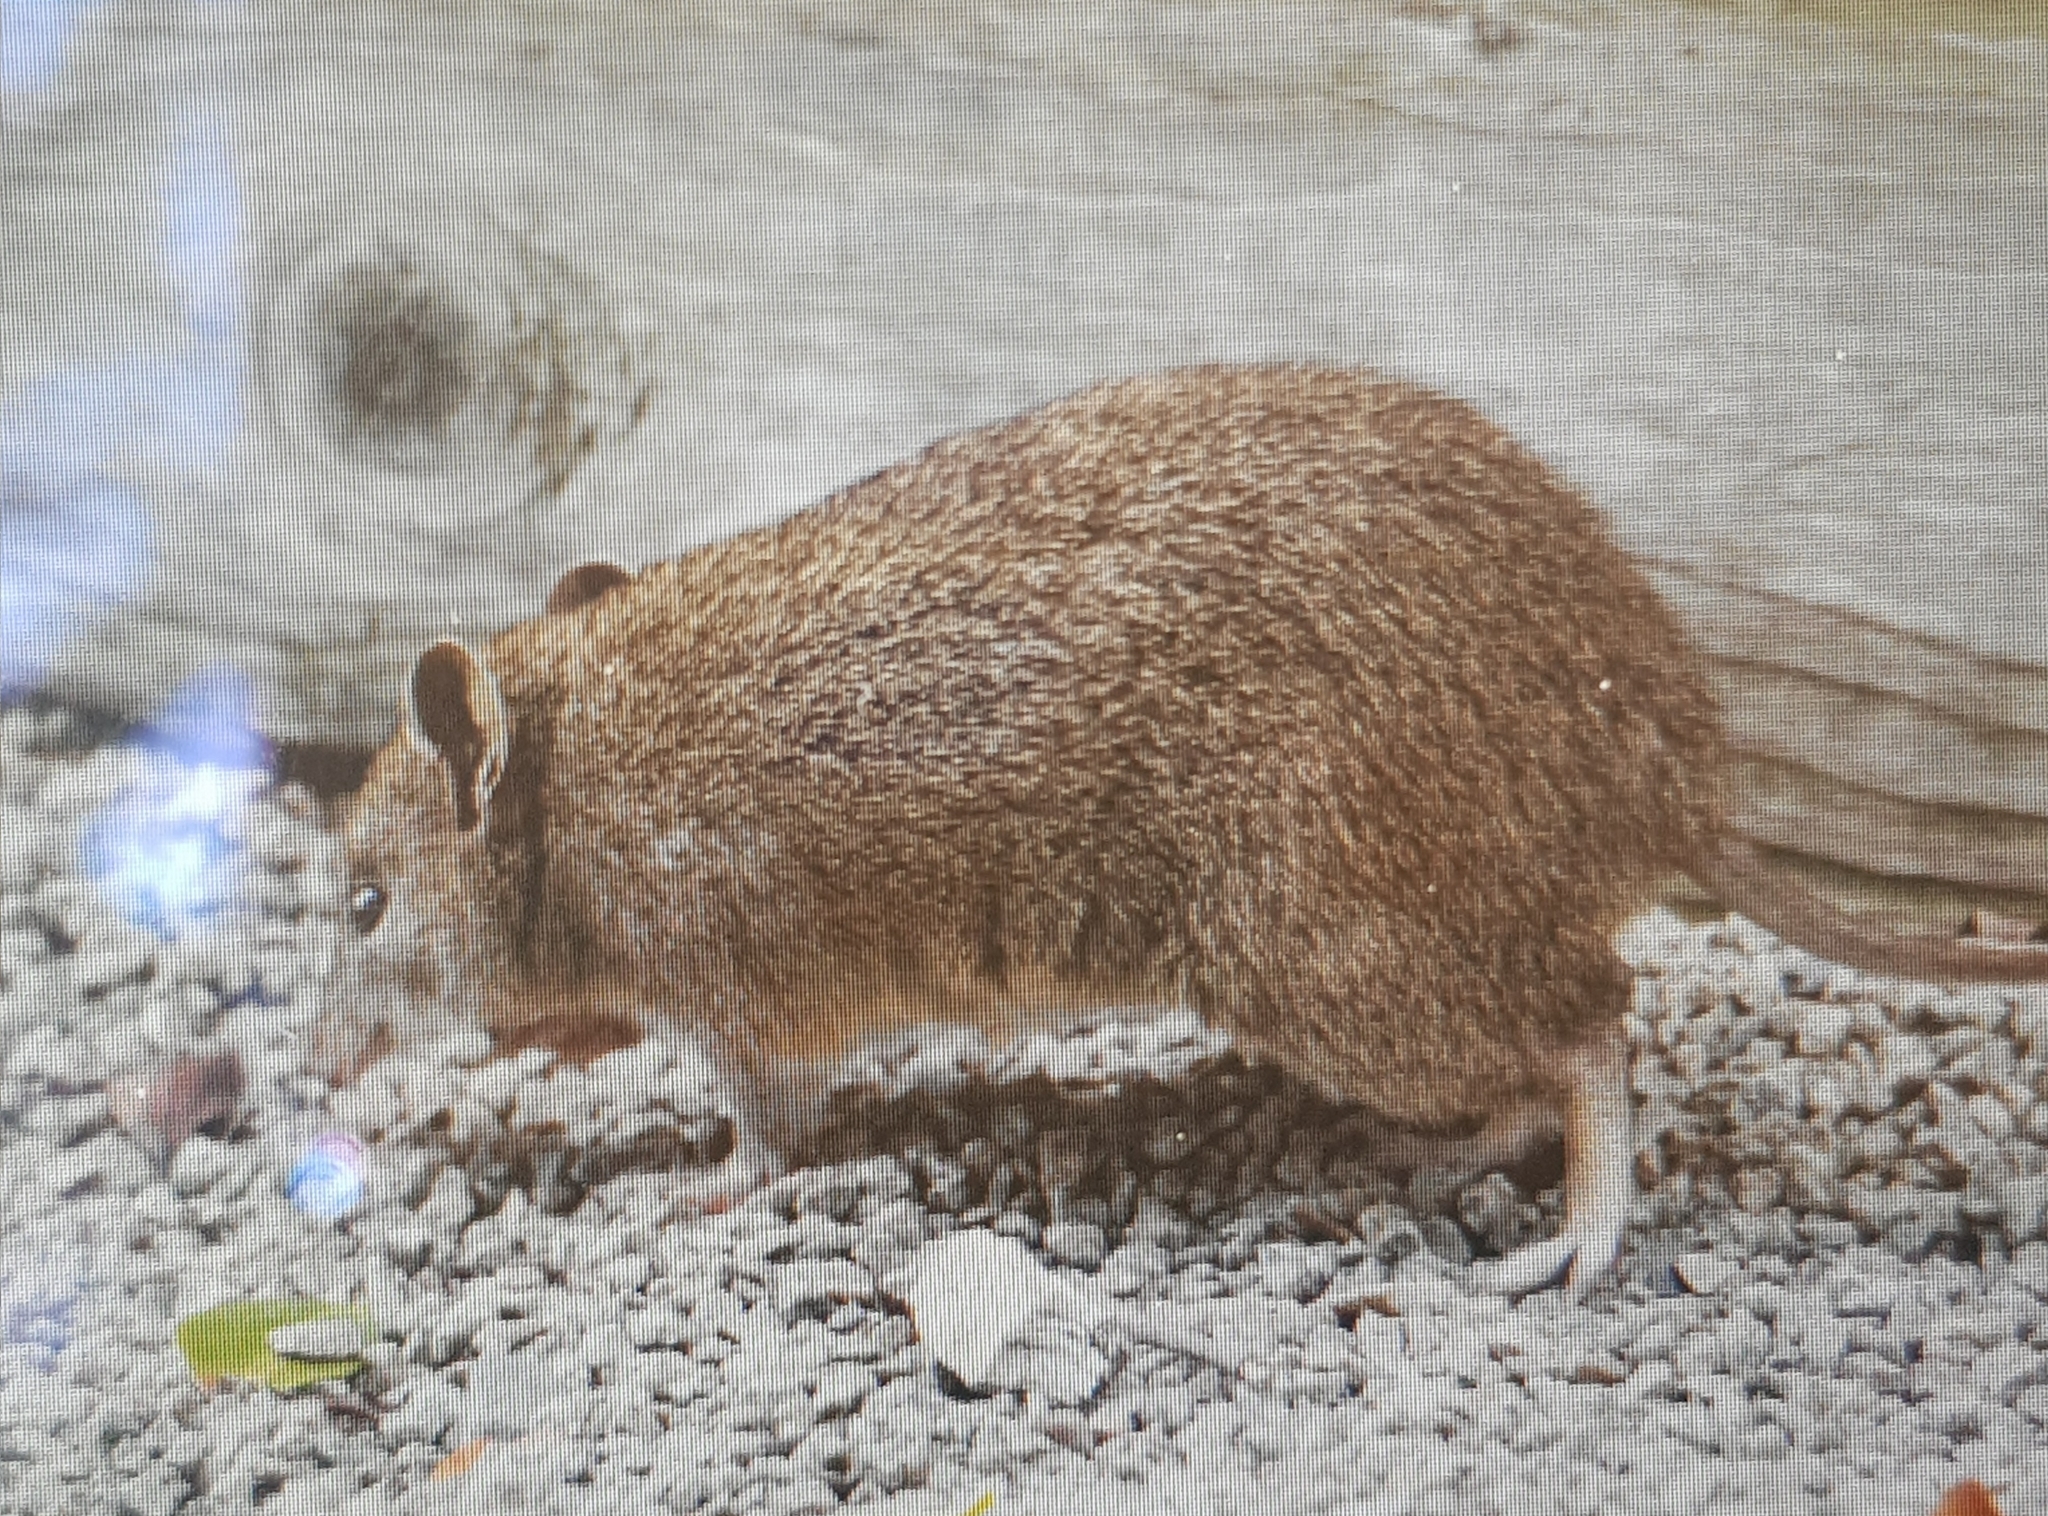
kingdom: Animalia
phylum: Chordata
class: Mammalia
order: Peramelemorphia
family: Peramelidae
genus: Isoodon
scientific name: Isoodon obesulus
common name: Southern brown bandicoot
